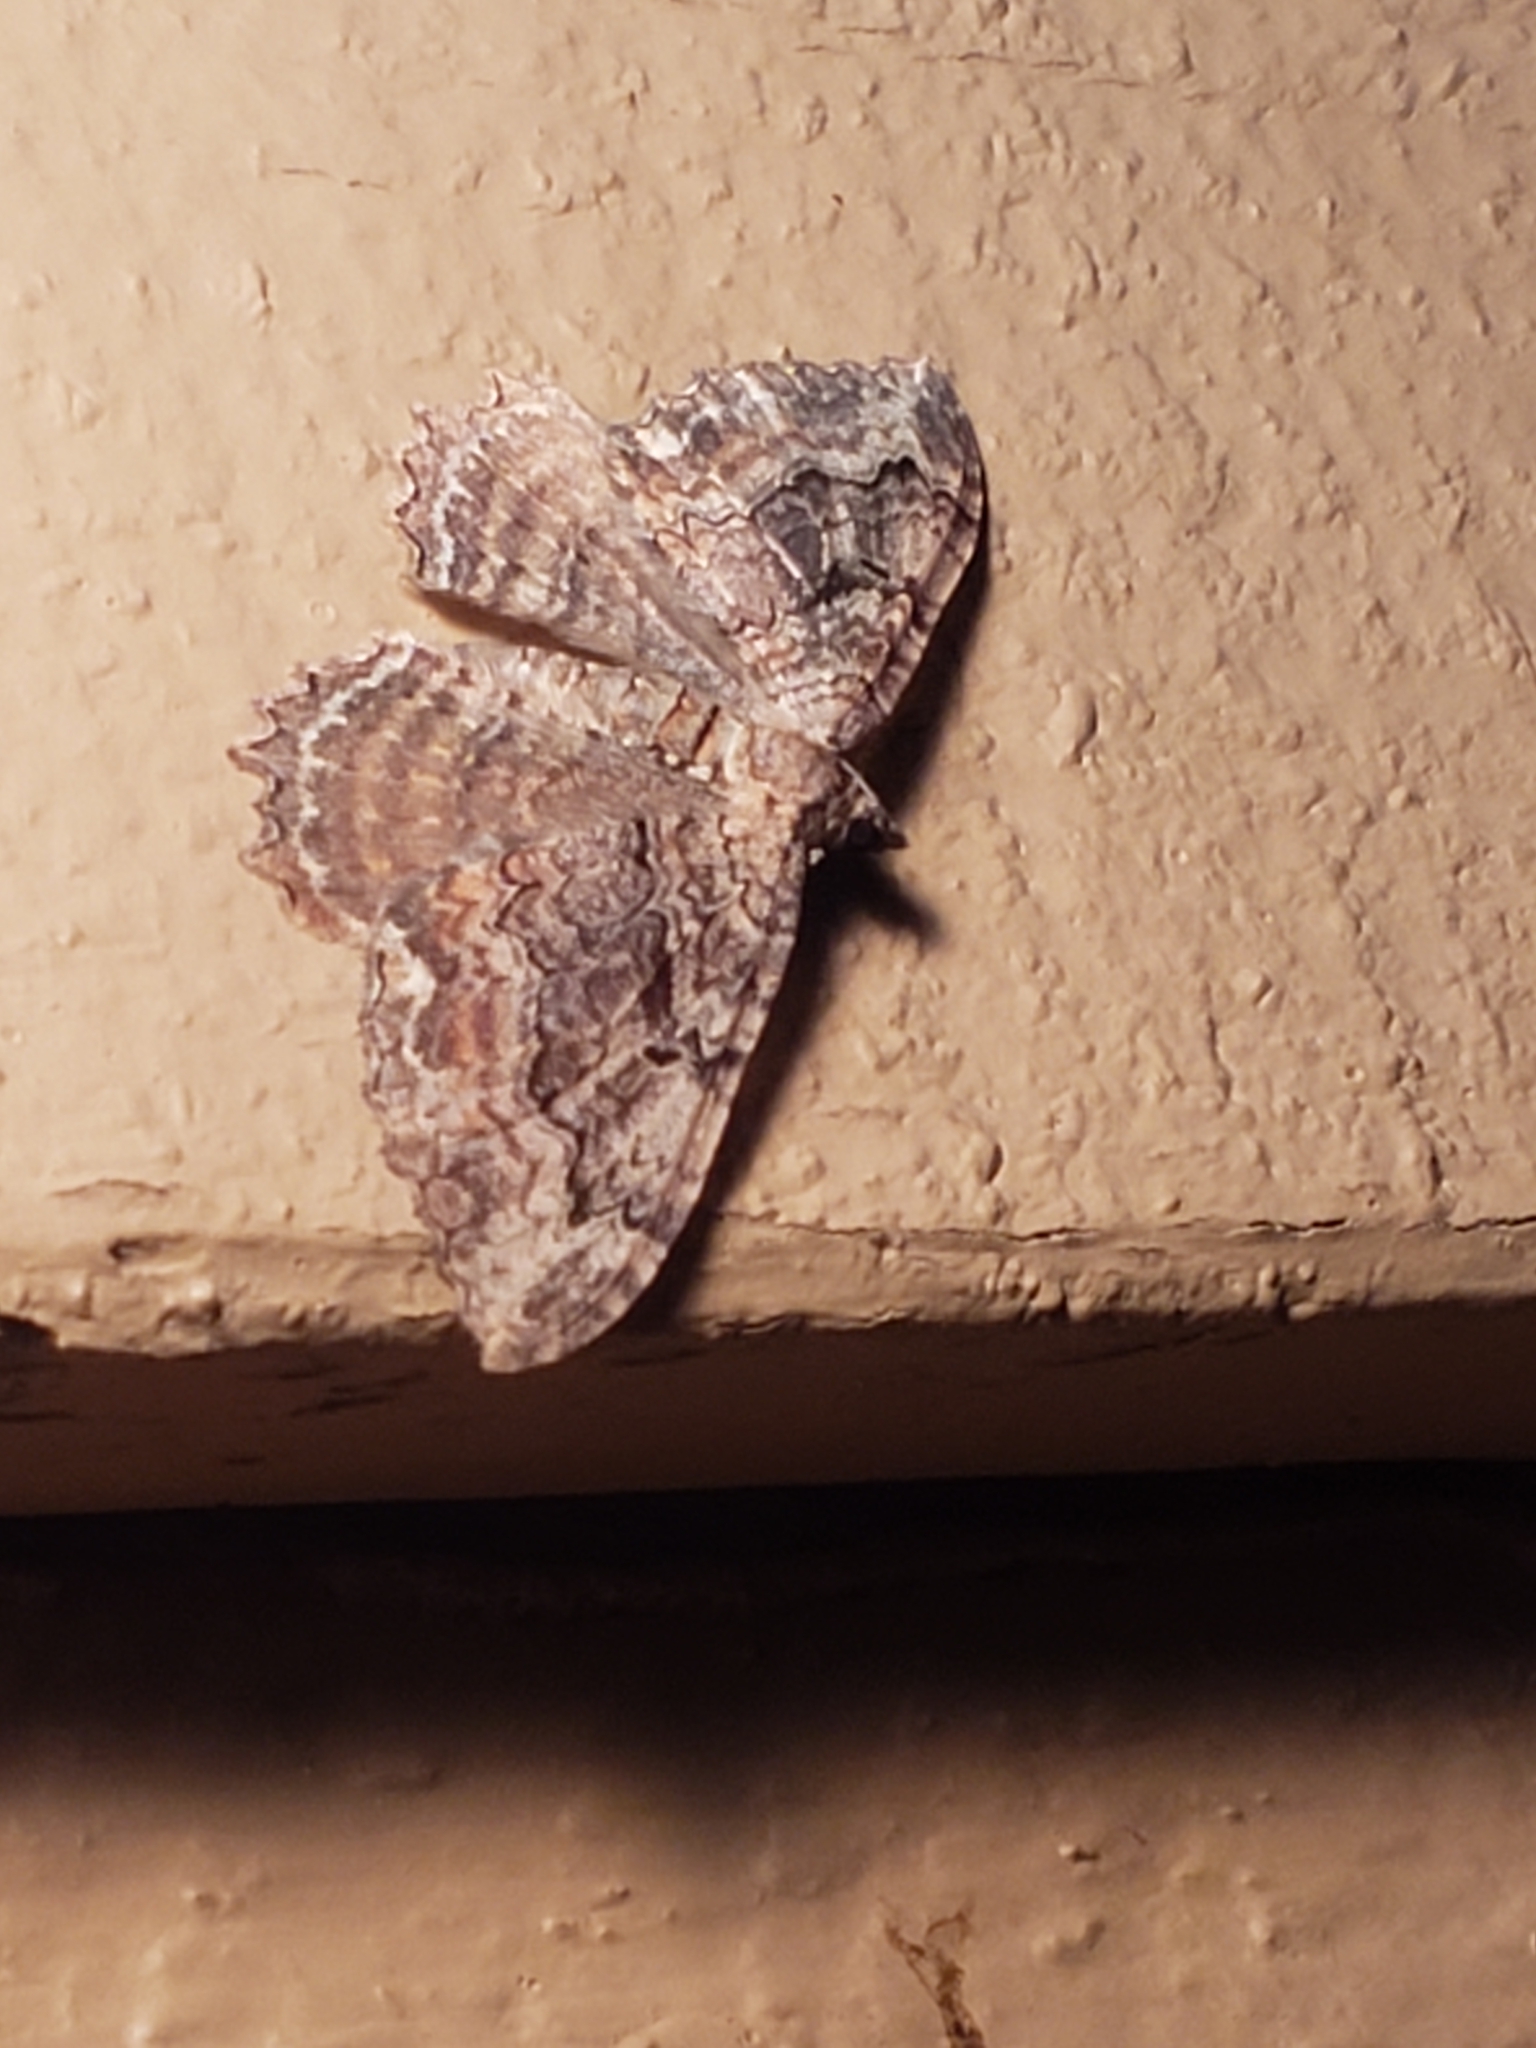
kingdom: Animalia
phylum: Arthropoda
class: Insecta
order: Lepidoptera
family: Geometridae
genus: Rheumaptera
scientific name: Rheumaptera
